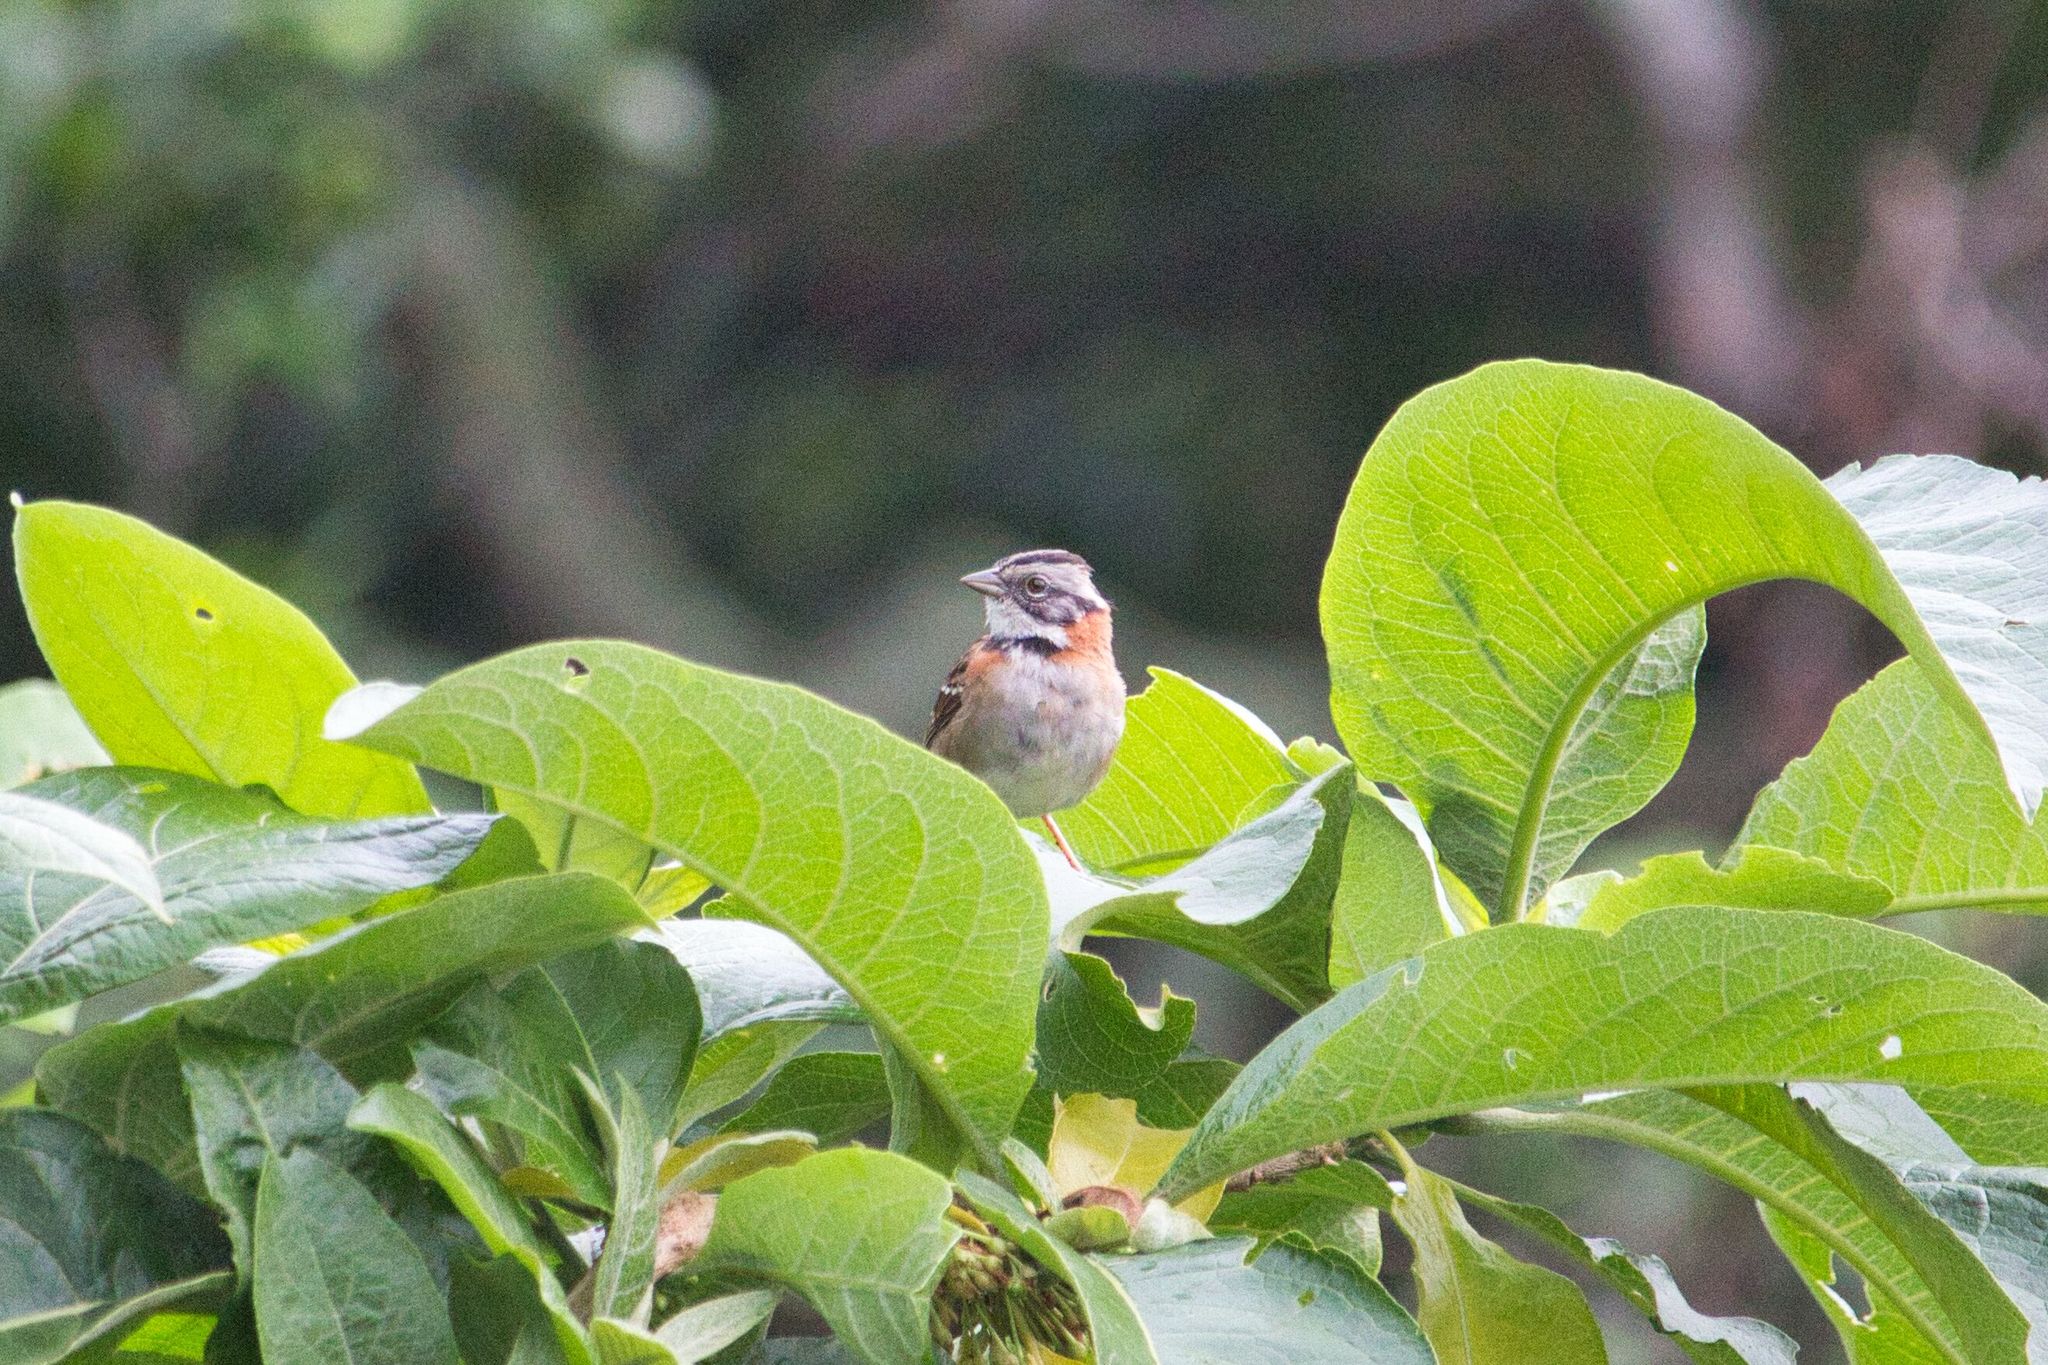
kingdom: Animalia
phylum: Chordata
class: Aves
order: Passeriformes
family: Passerellidae
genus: Zonotrichia
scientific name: Zonotrichia capensis
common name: Rufous-collared sparrow
